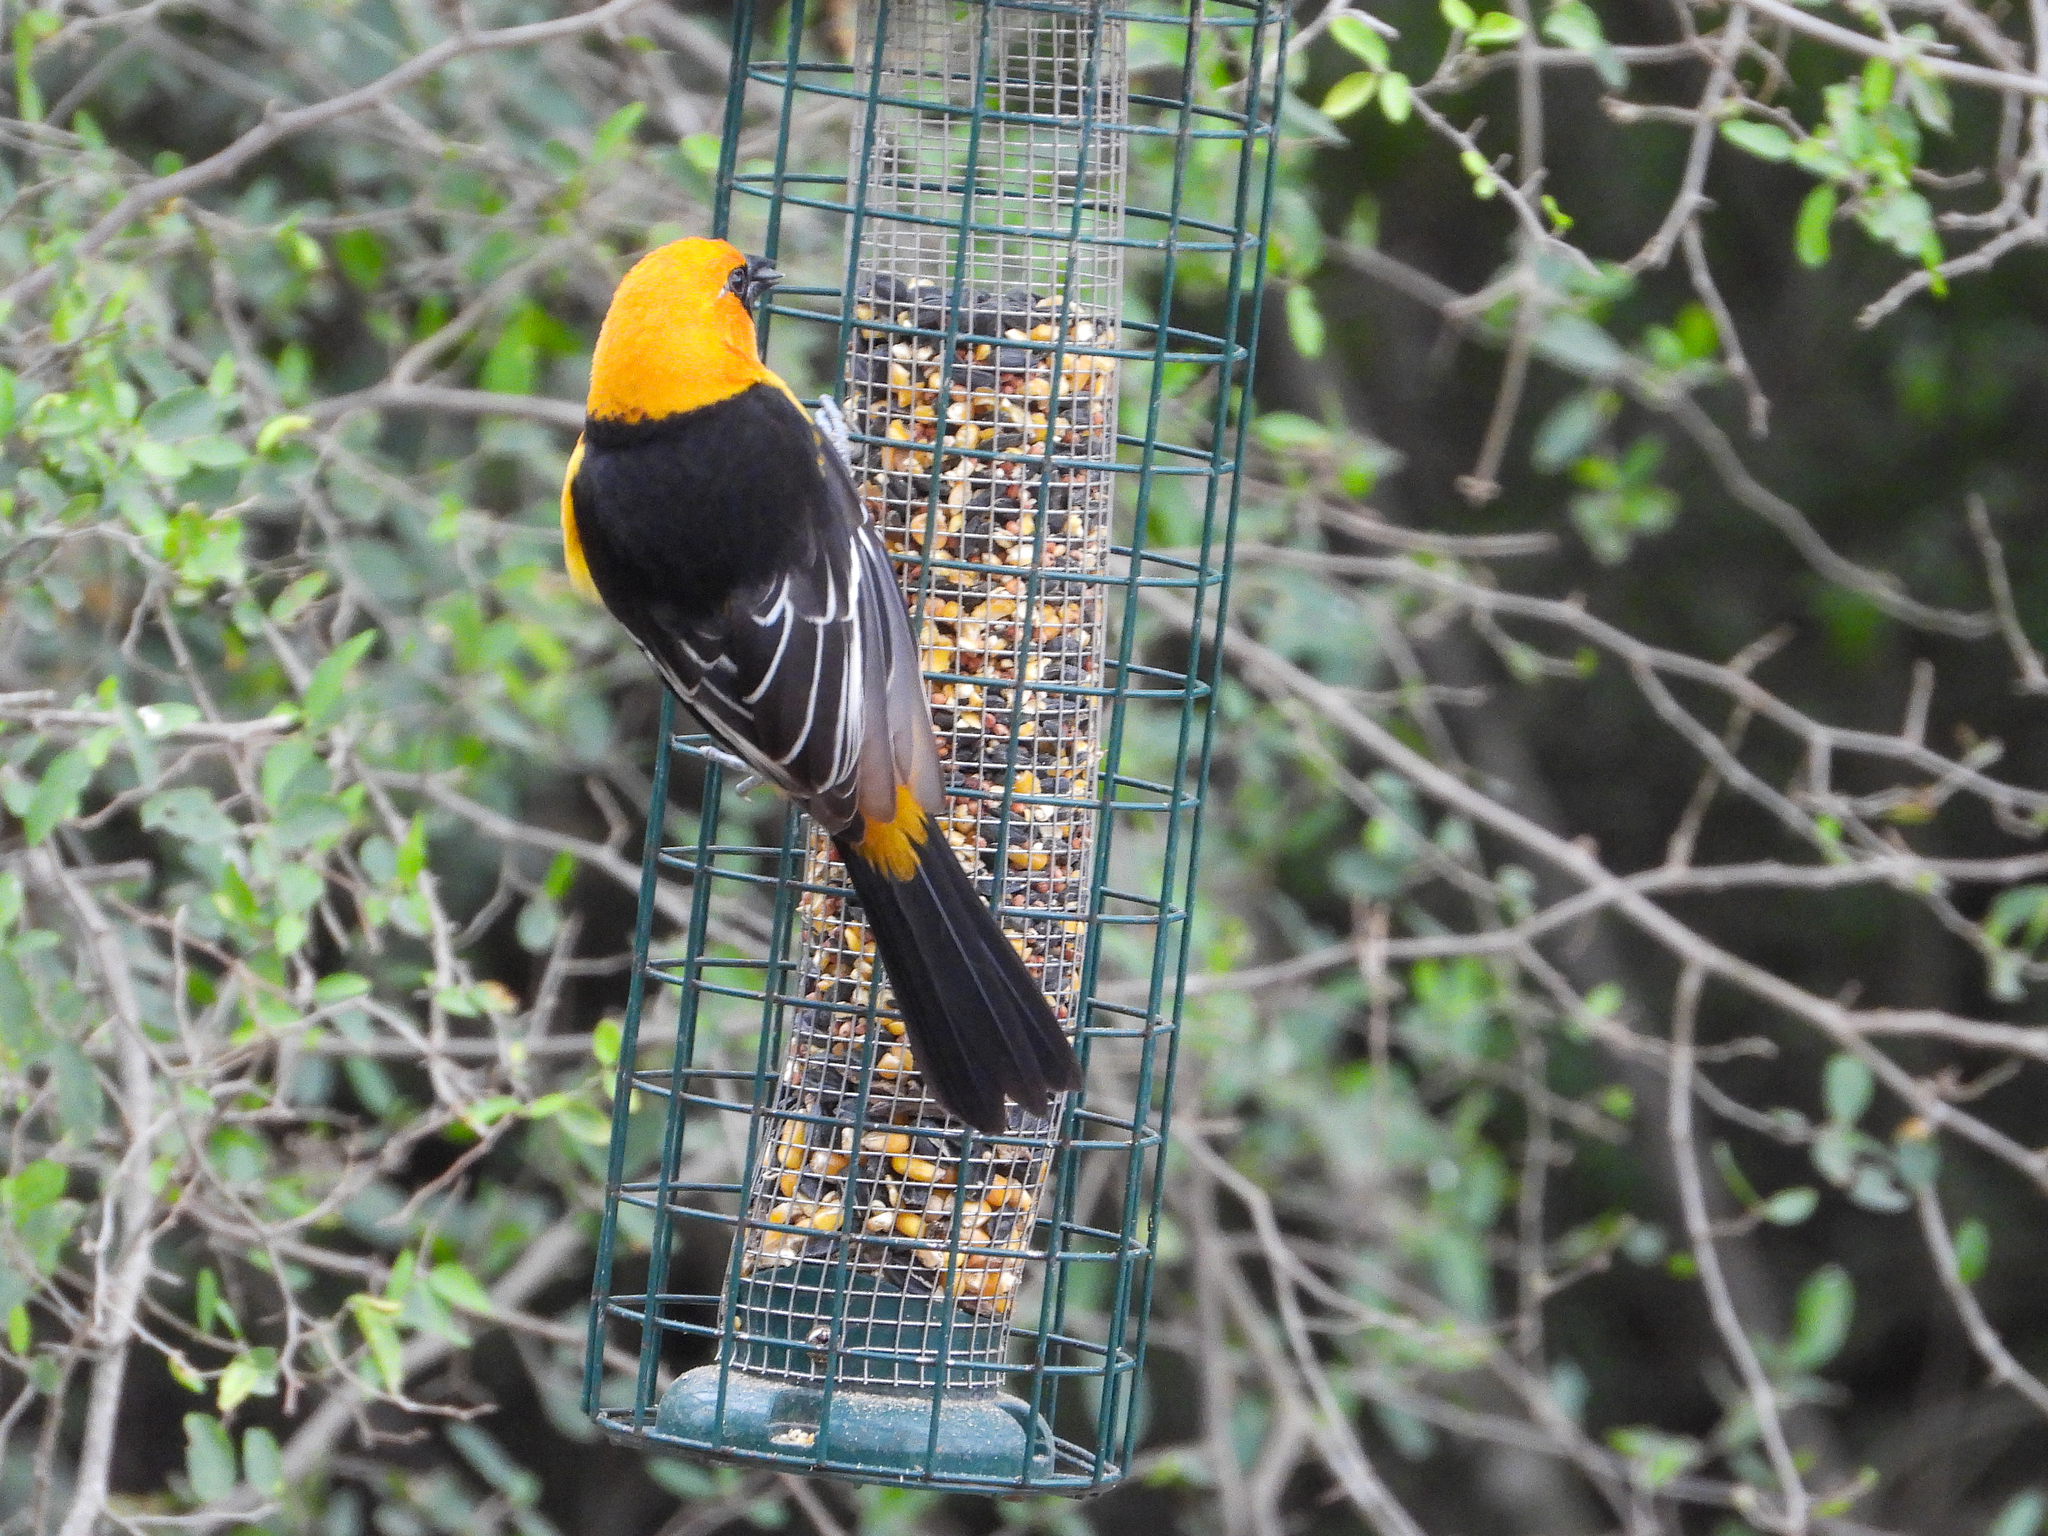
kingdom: Animalia
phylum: Chordata
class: Aves
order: Passeriformes
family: Icteridae
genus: Icterus
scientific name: Icterus gularis
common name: Altamira oriole
